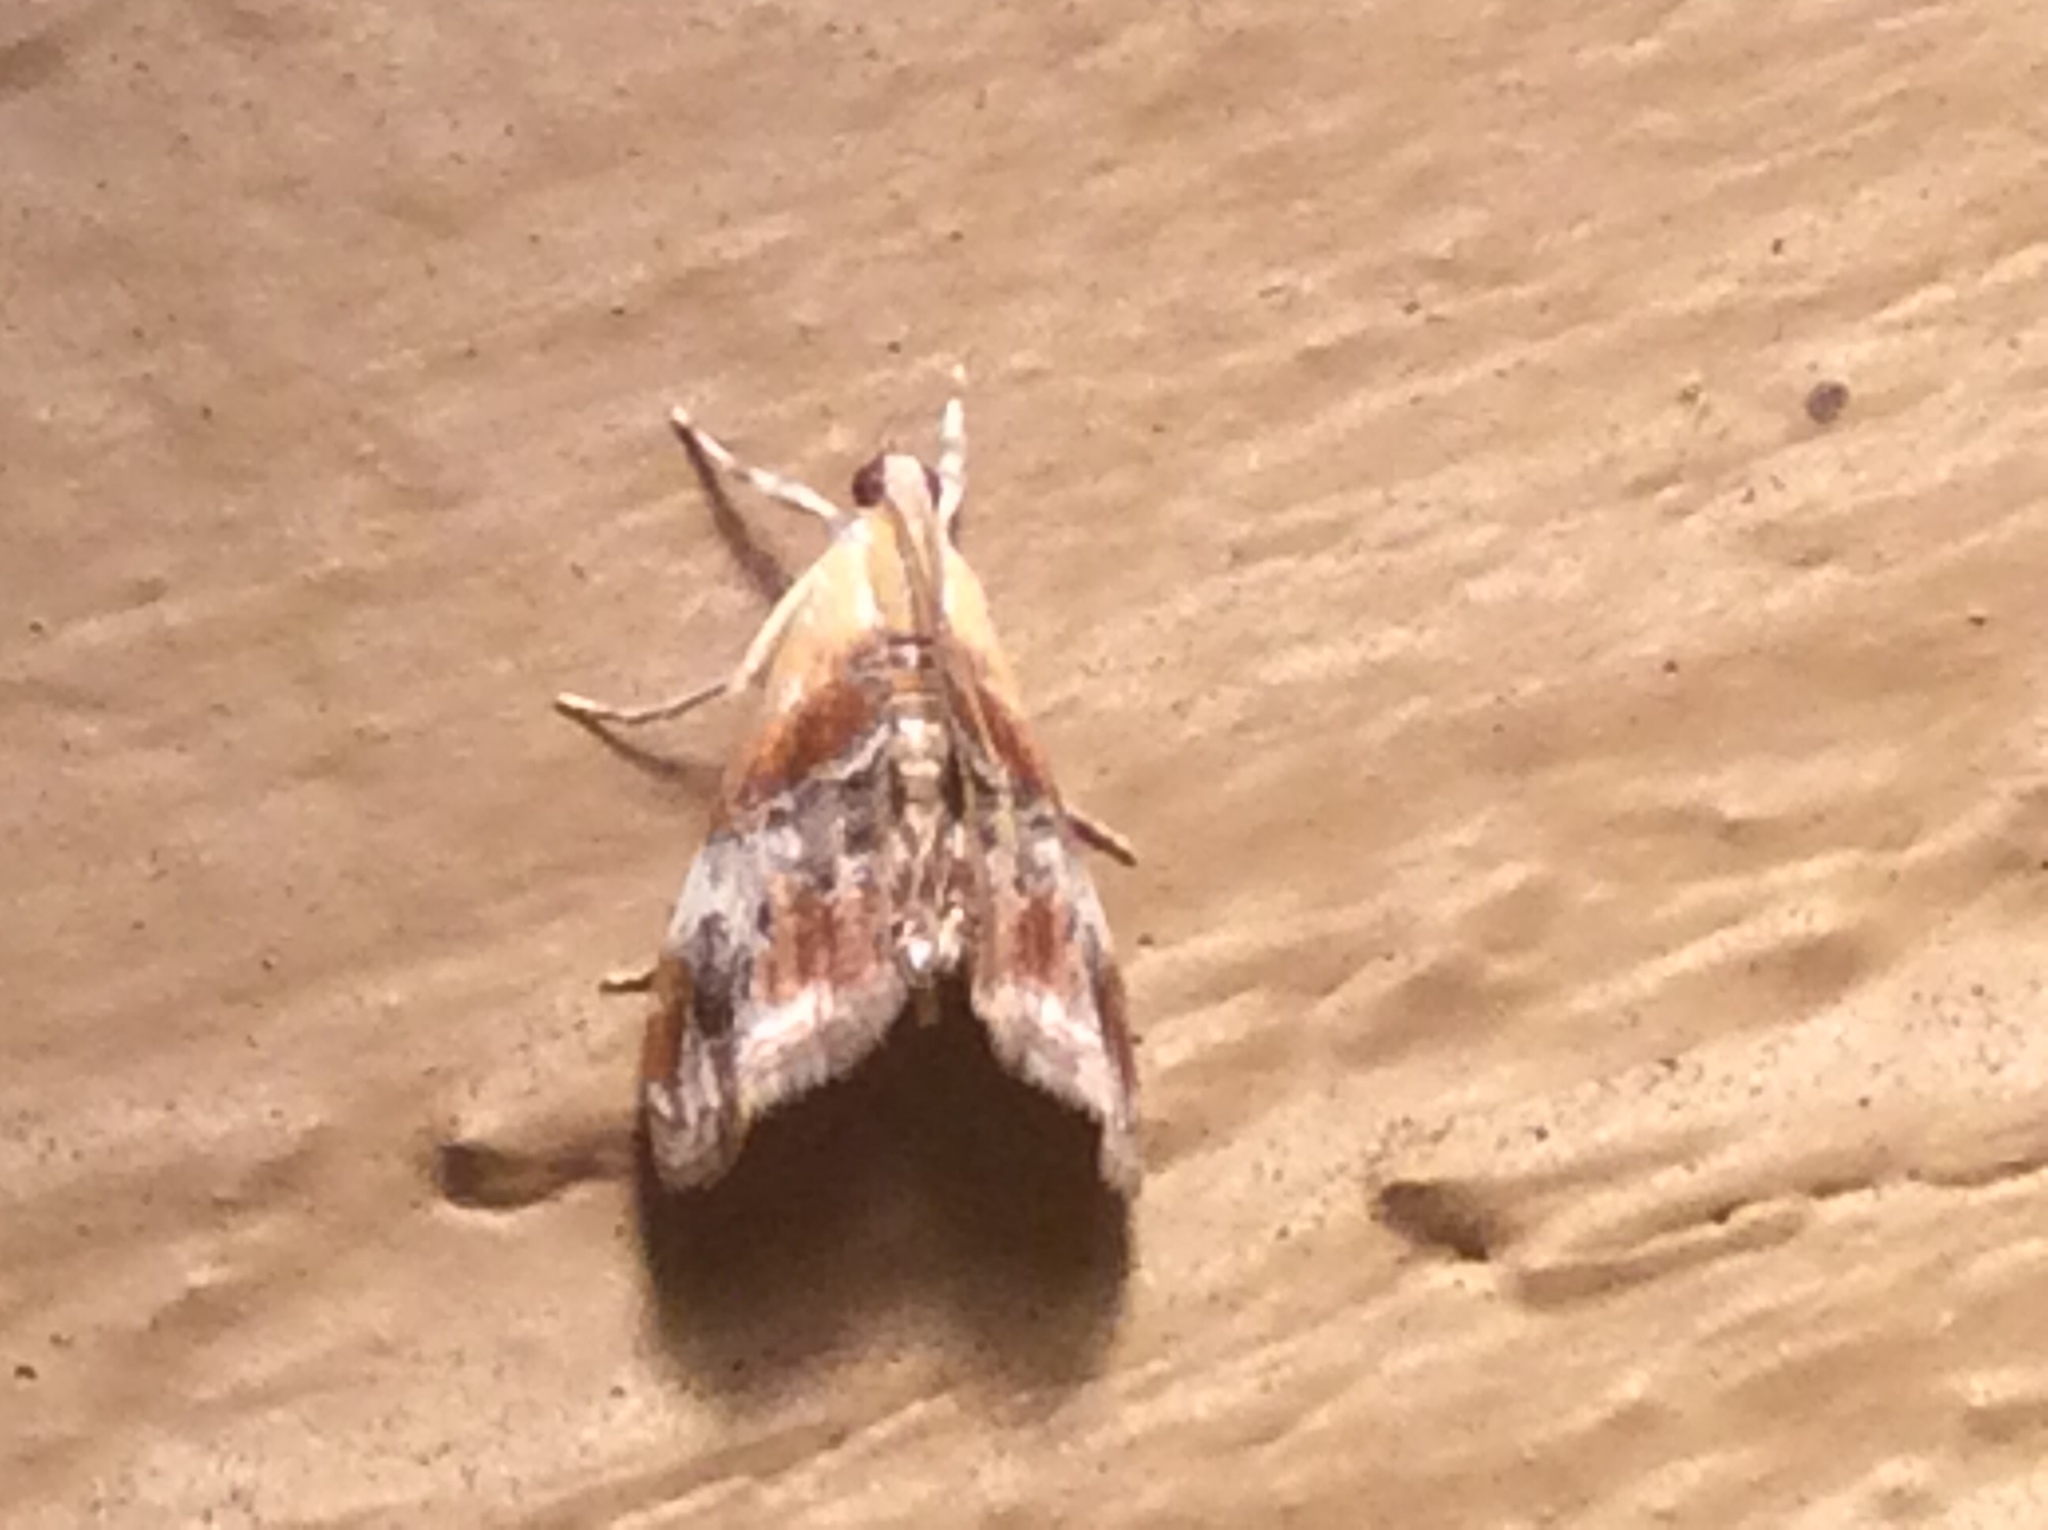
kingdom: Animalia
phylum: Arthropoda
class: Insecta
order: Lepidoptera
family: Crambidae
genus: Dicymolomia
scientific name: Dicymolomia julianalis
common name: Julia's dicymolomia moth
